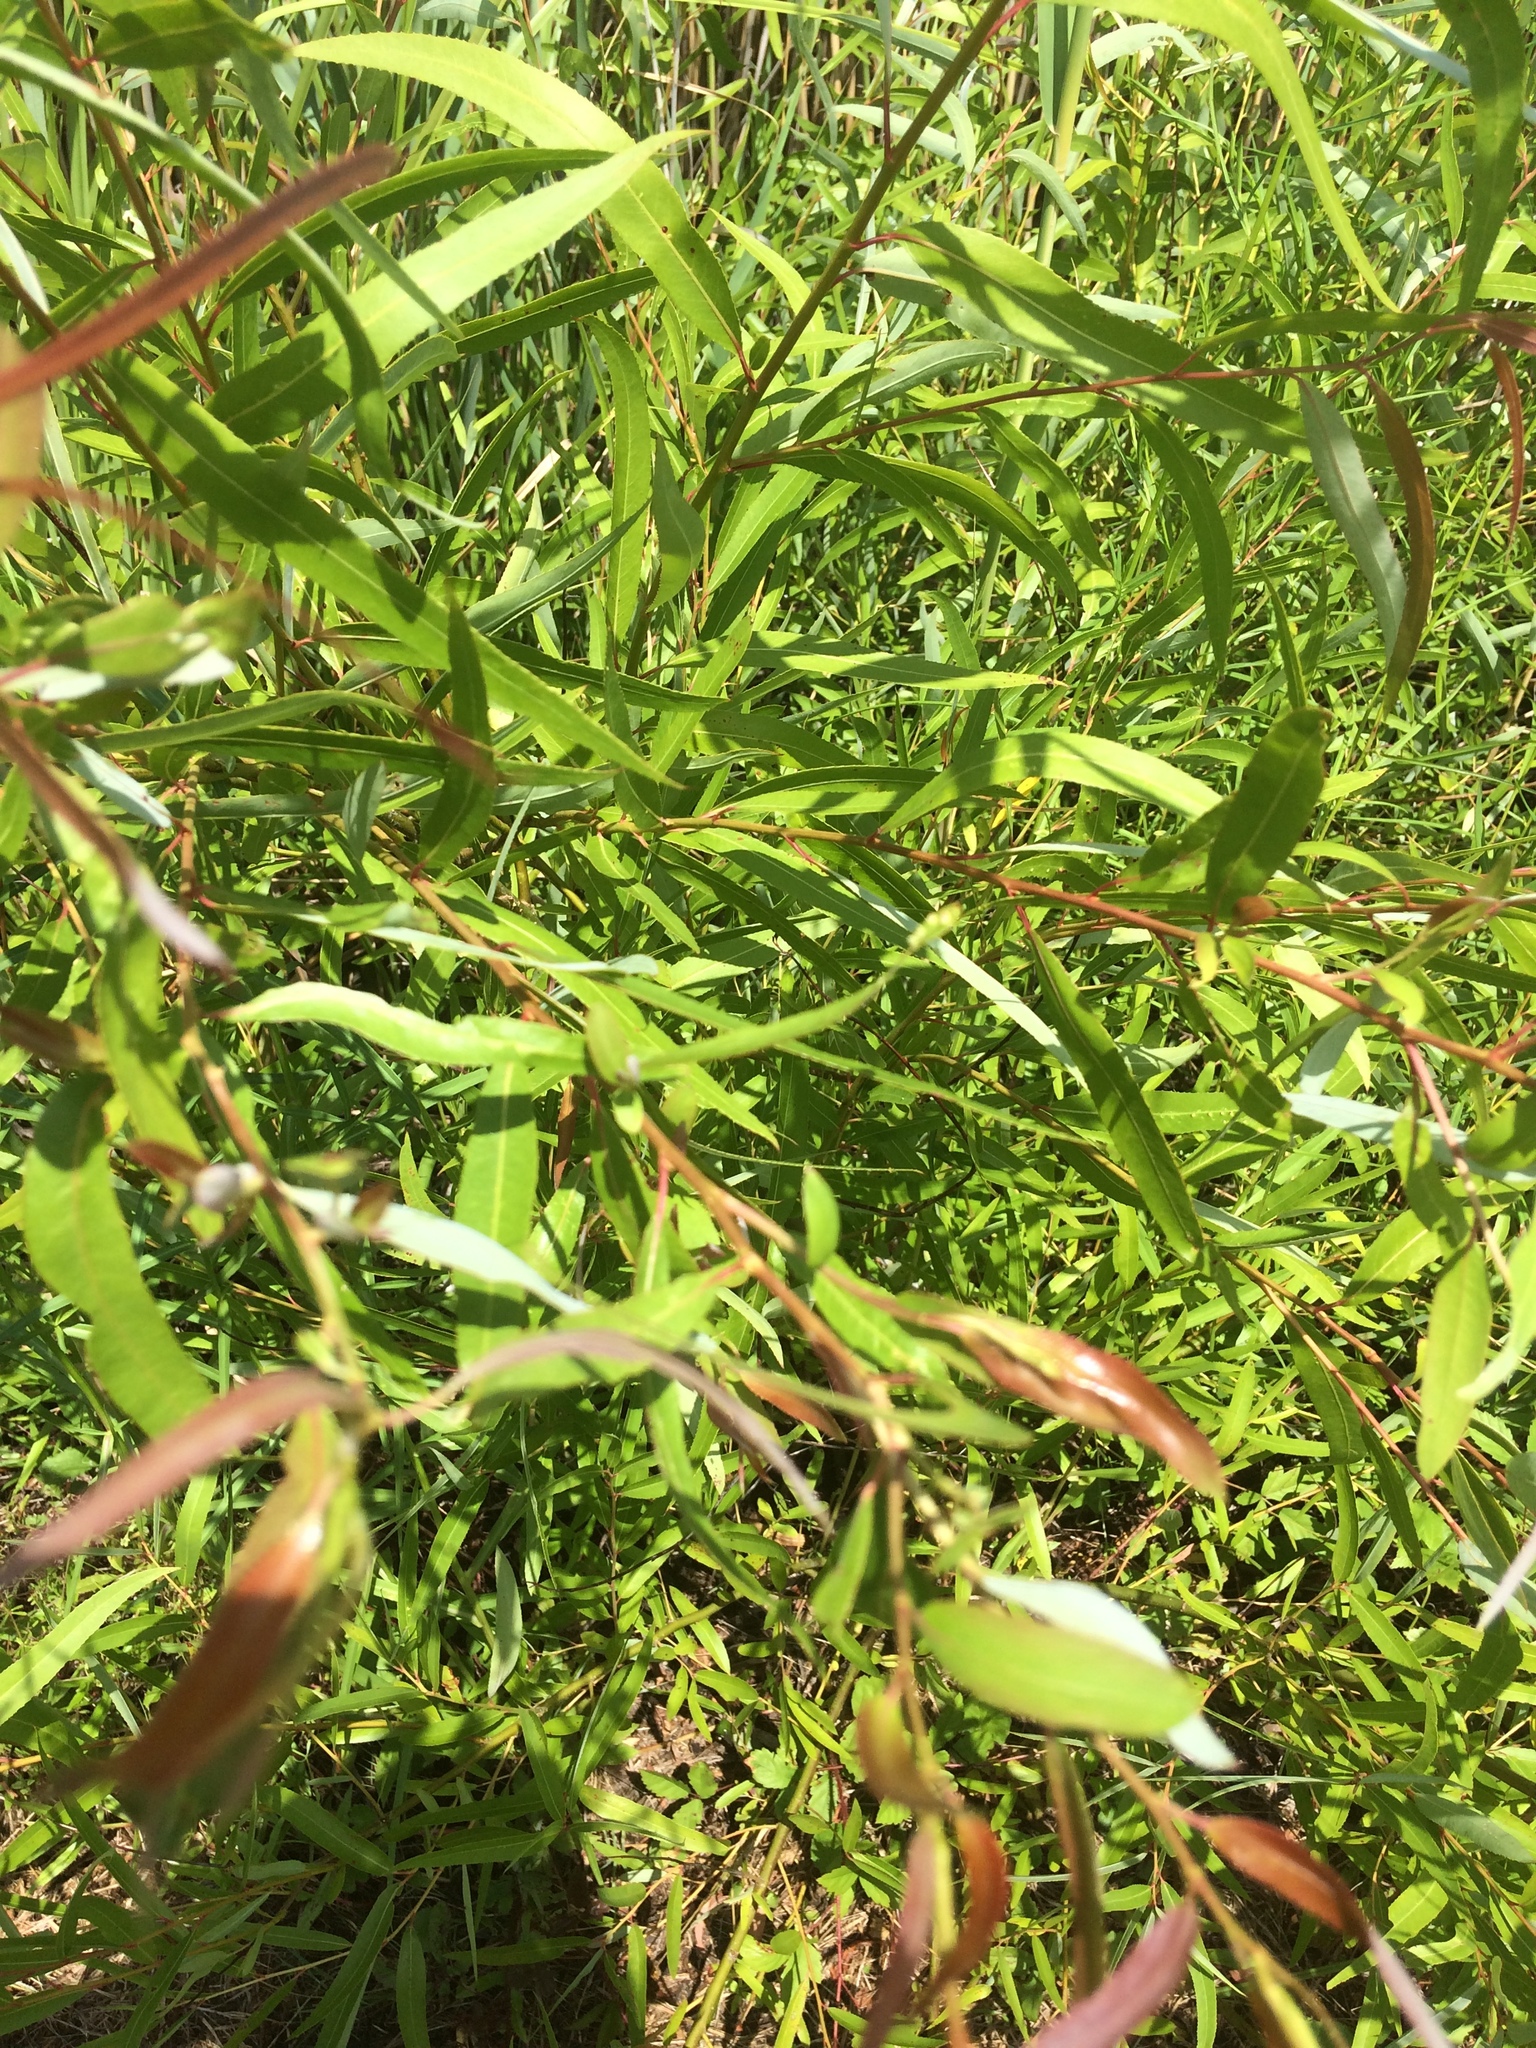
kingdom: Plantae
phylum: Tracheophyta
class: Magnoliopsida
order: Malpighiales
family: Salicaceae
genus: Salix
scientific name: Salix nigra
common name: Black willow
